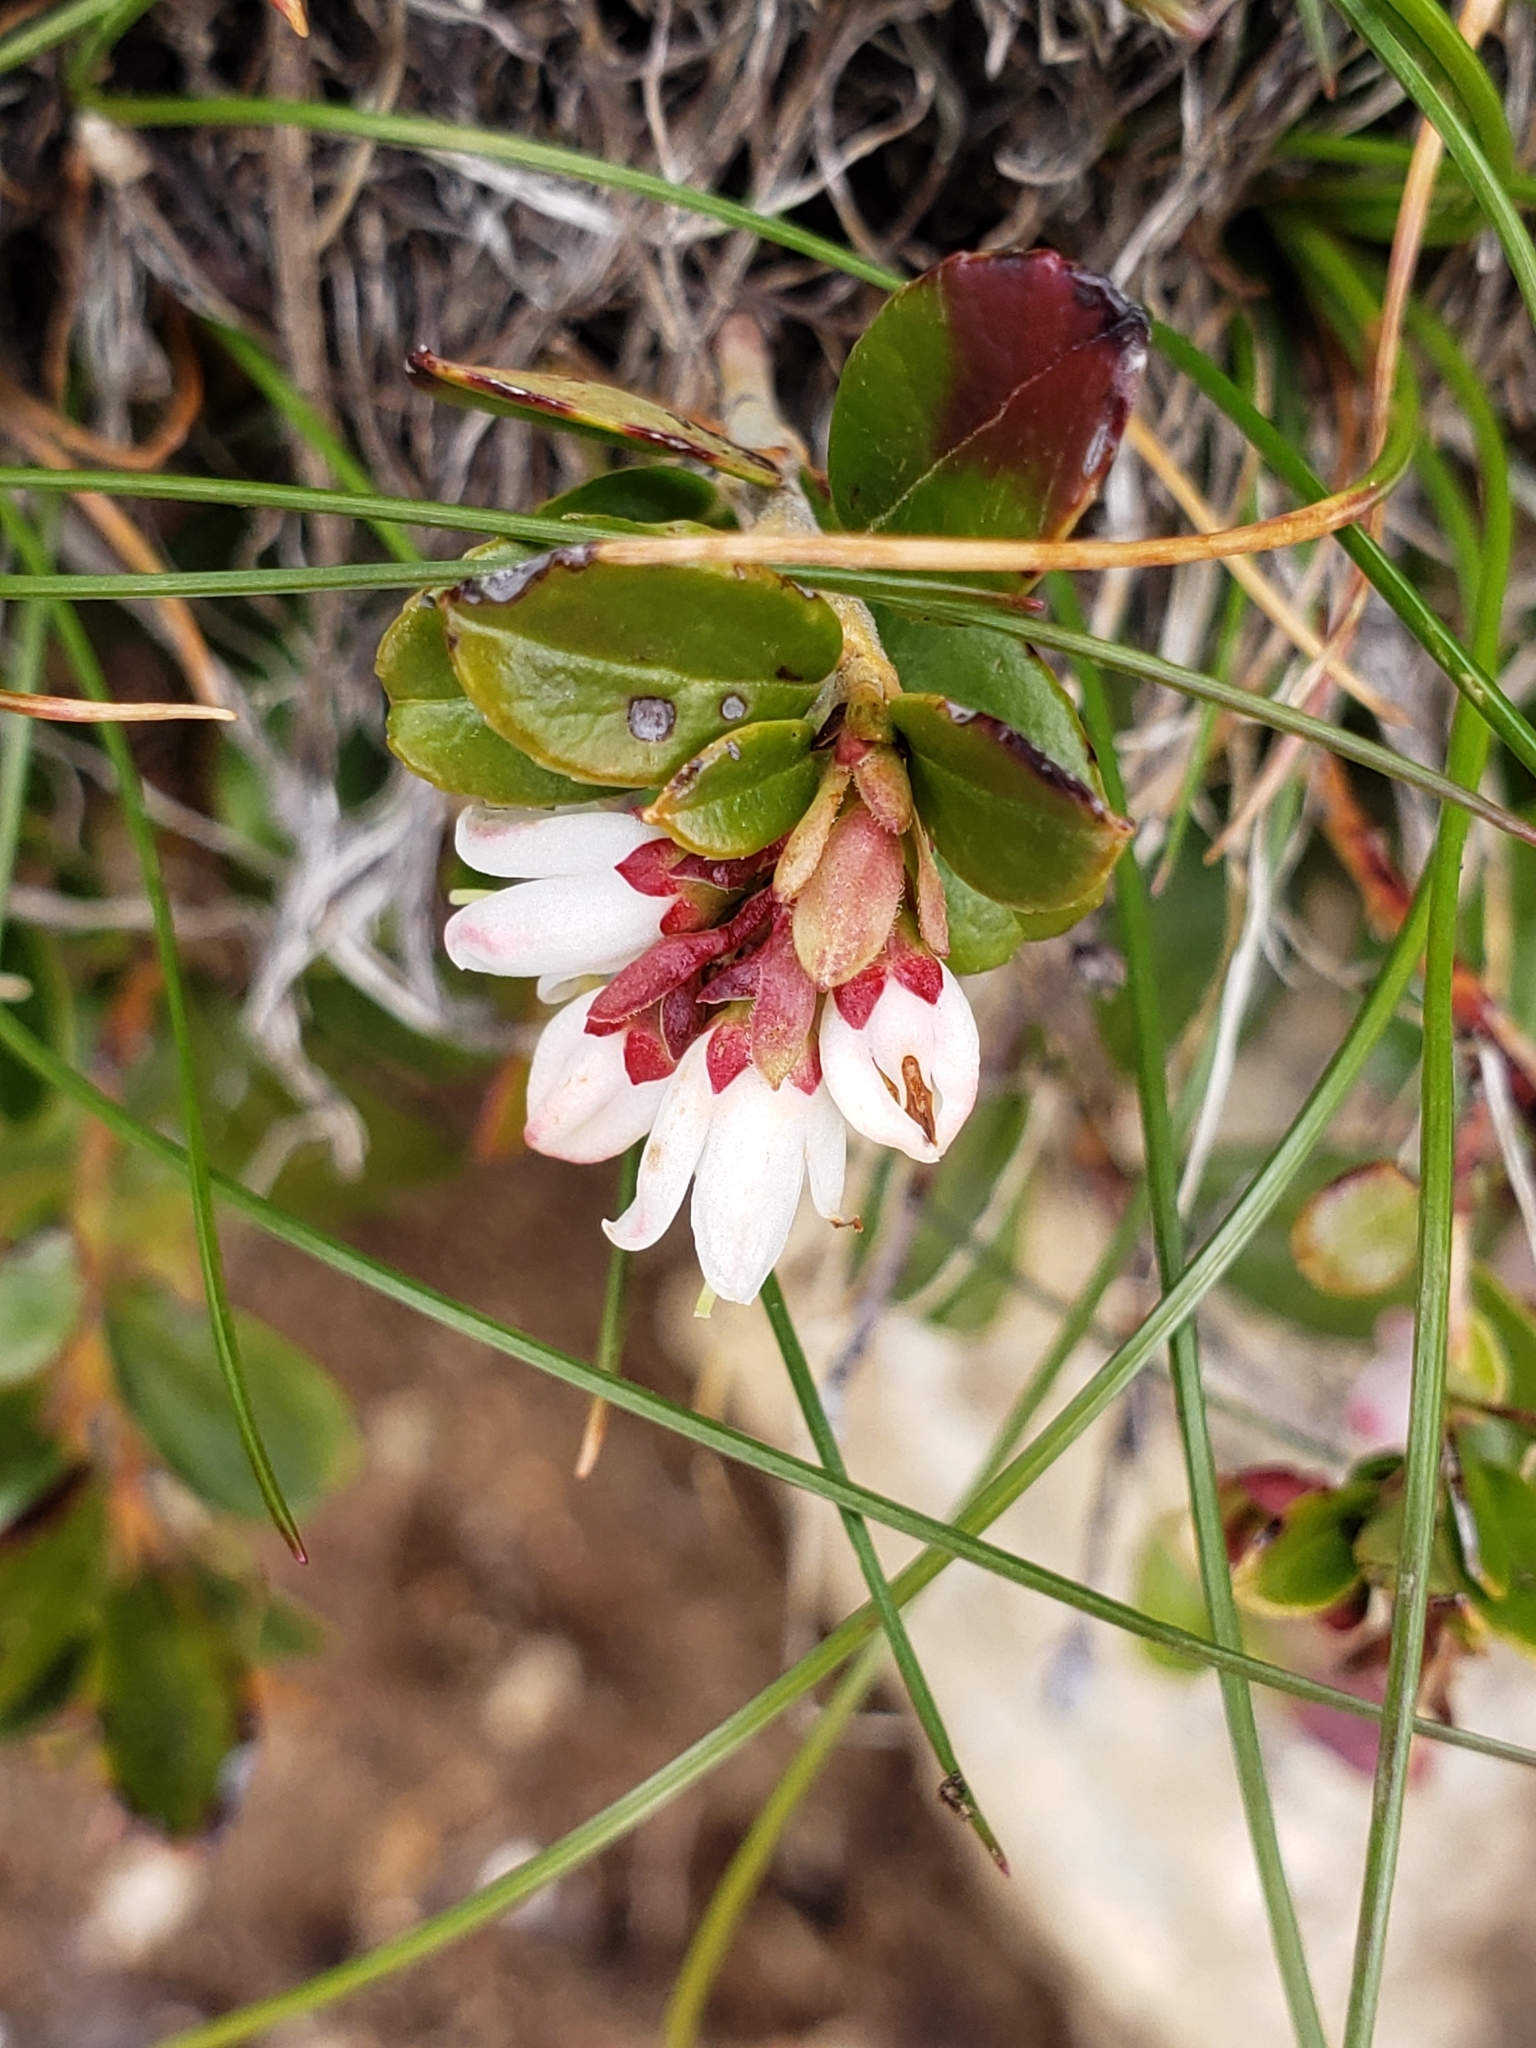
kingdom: Plantae
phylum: Tracheophyta
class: Magnoliopsida
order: Ericales
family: Ericaceae
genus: Vaccinium
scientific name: Vaccinium vitis-idaea
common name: Cowberry
